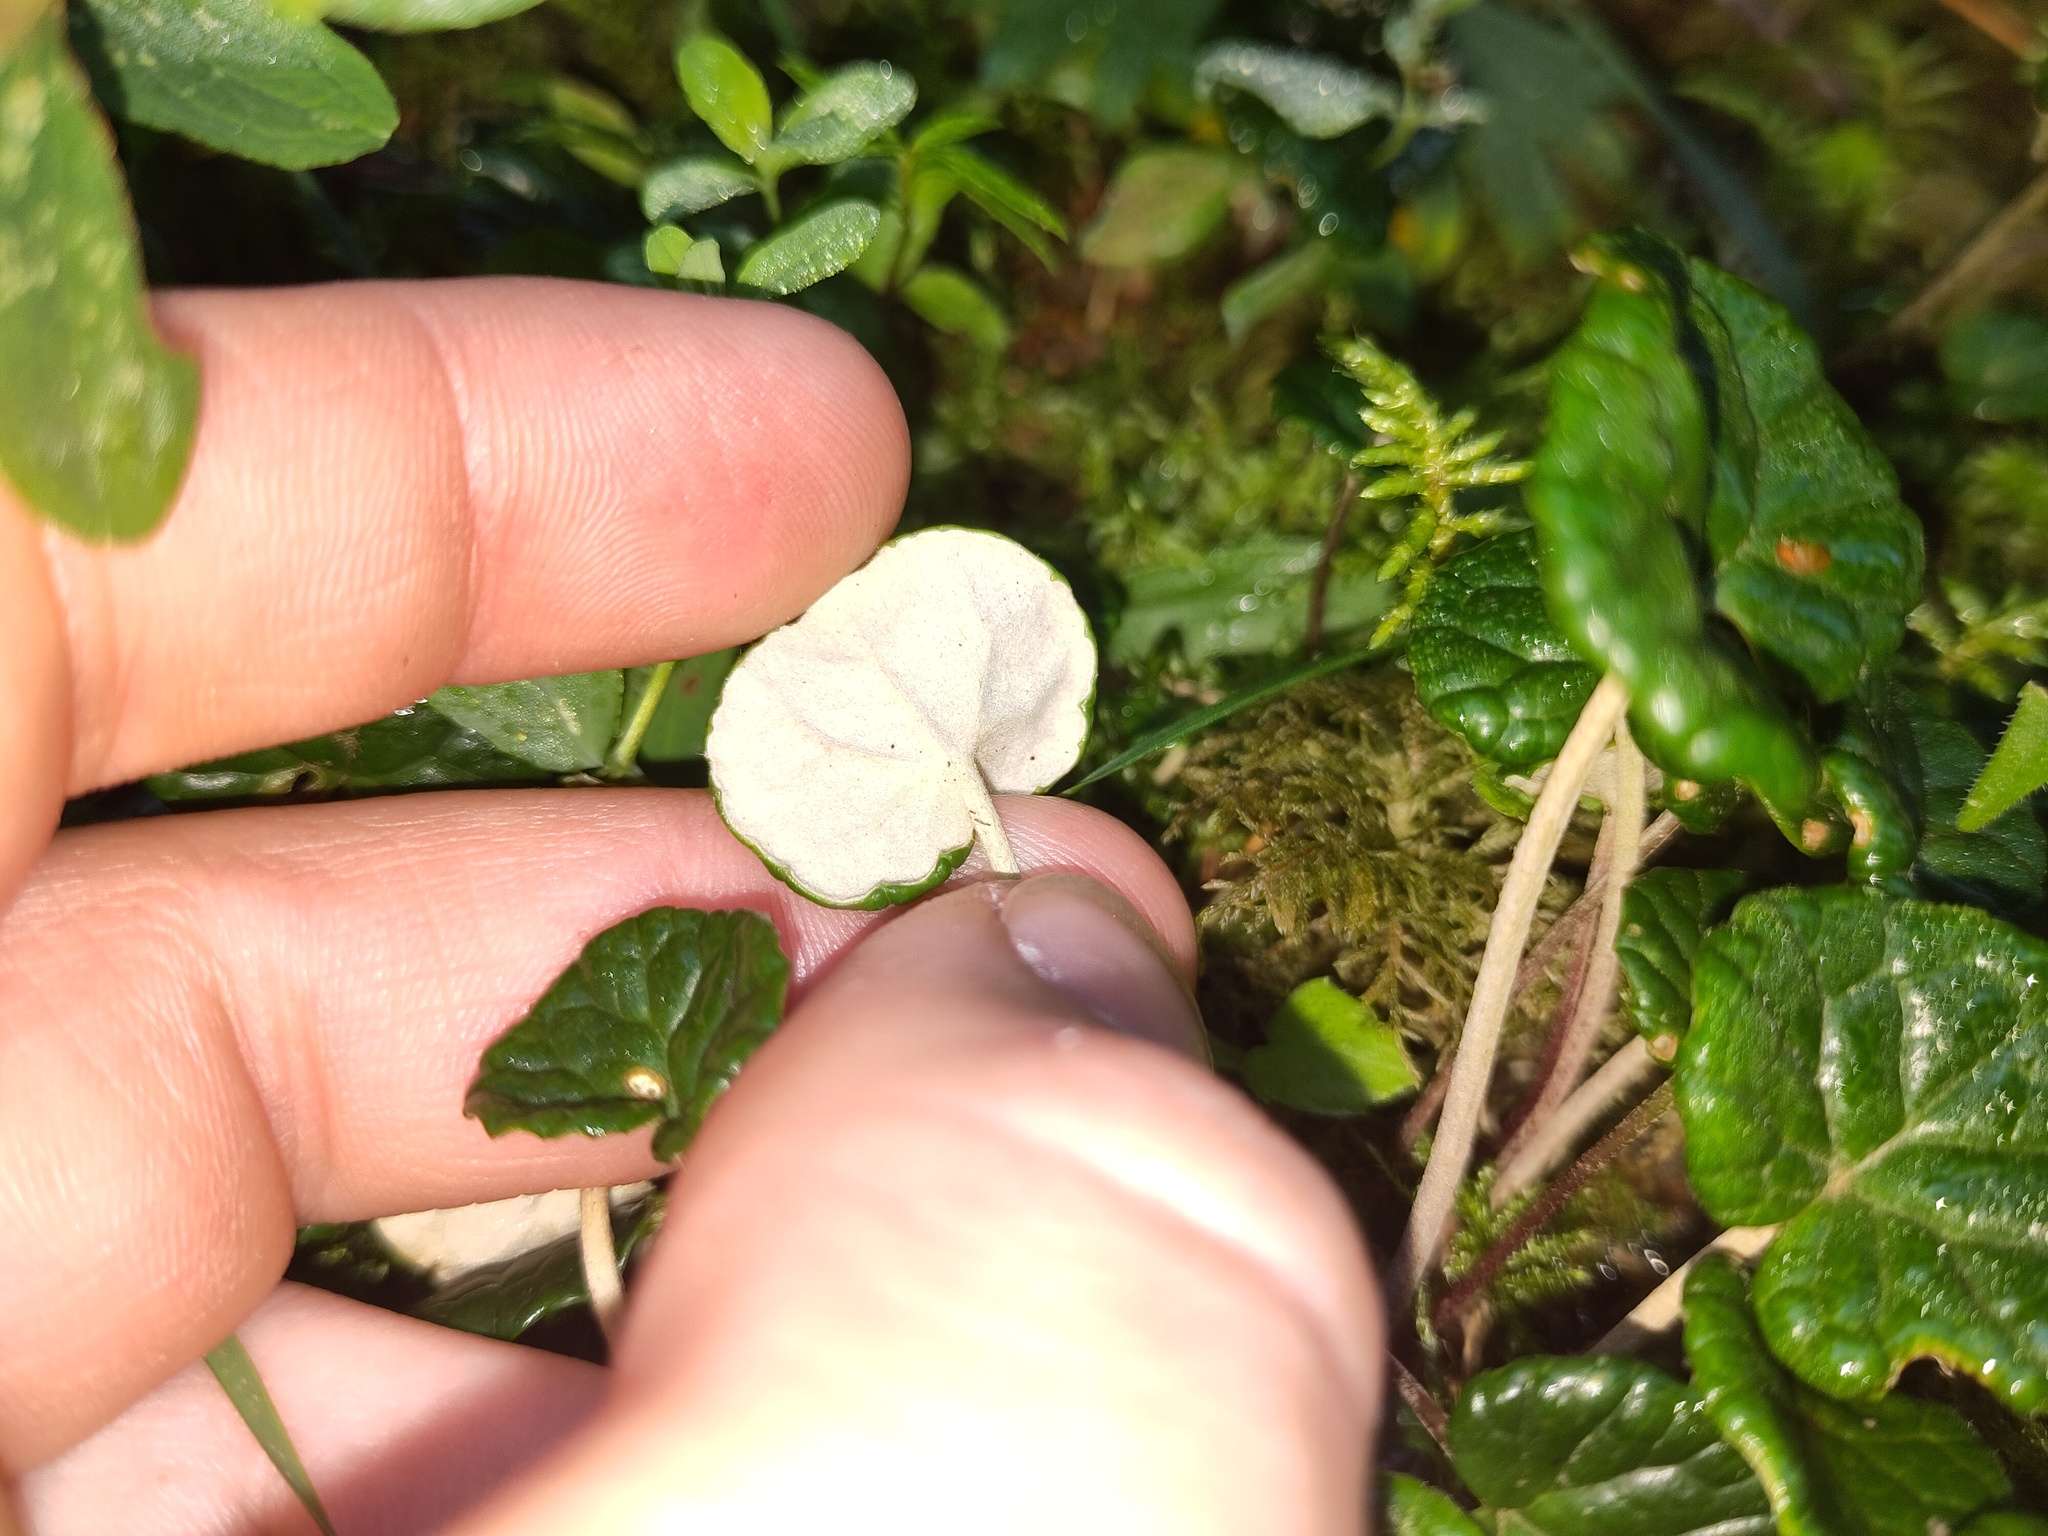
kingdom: Plantae
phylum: Tracheophyta
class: Magnoliopsida
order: Asterales
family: Asteraceae
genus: Homogyne
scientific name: Homogyne discolor
